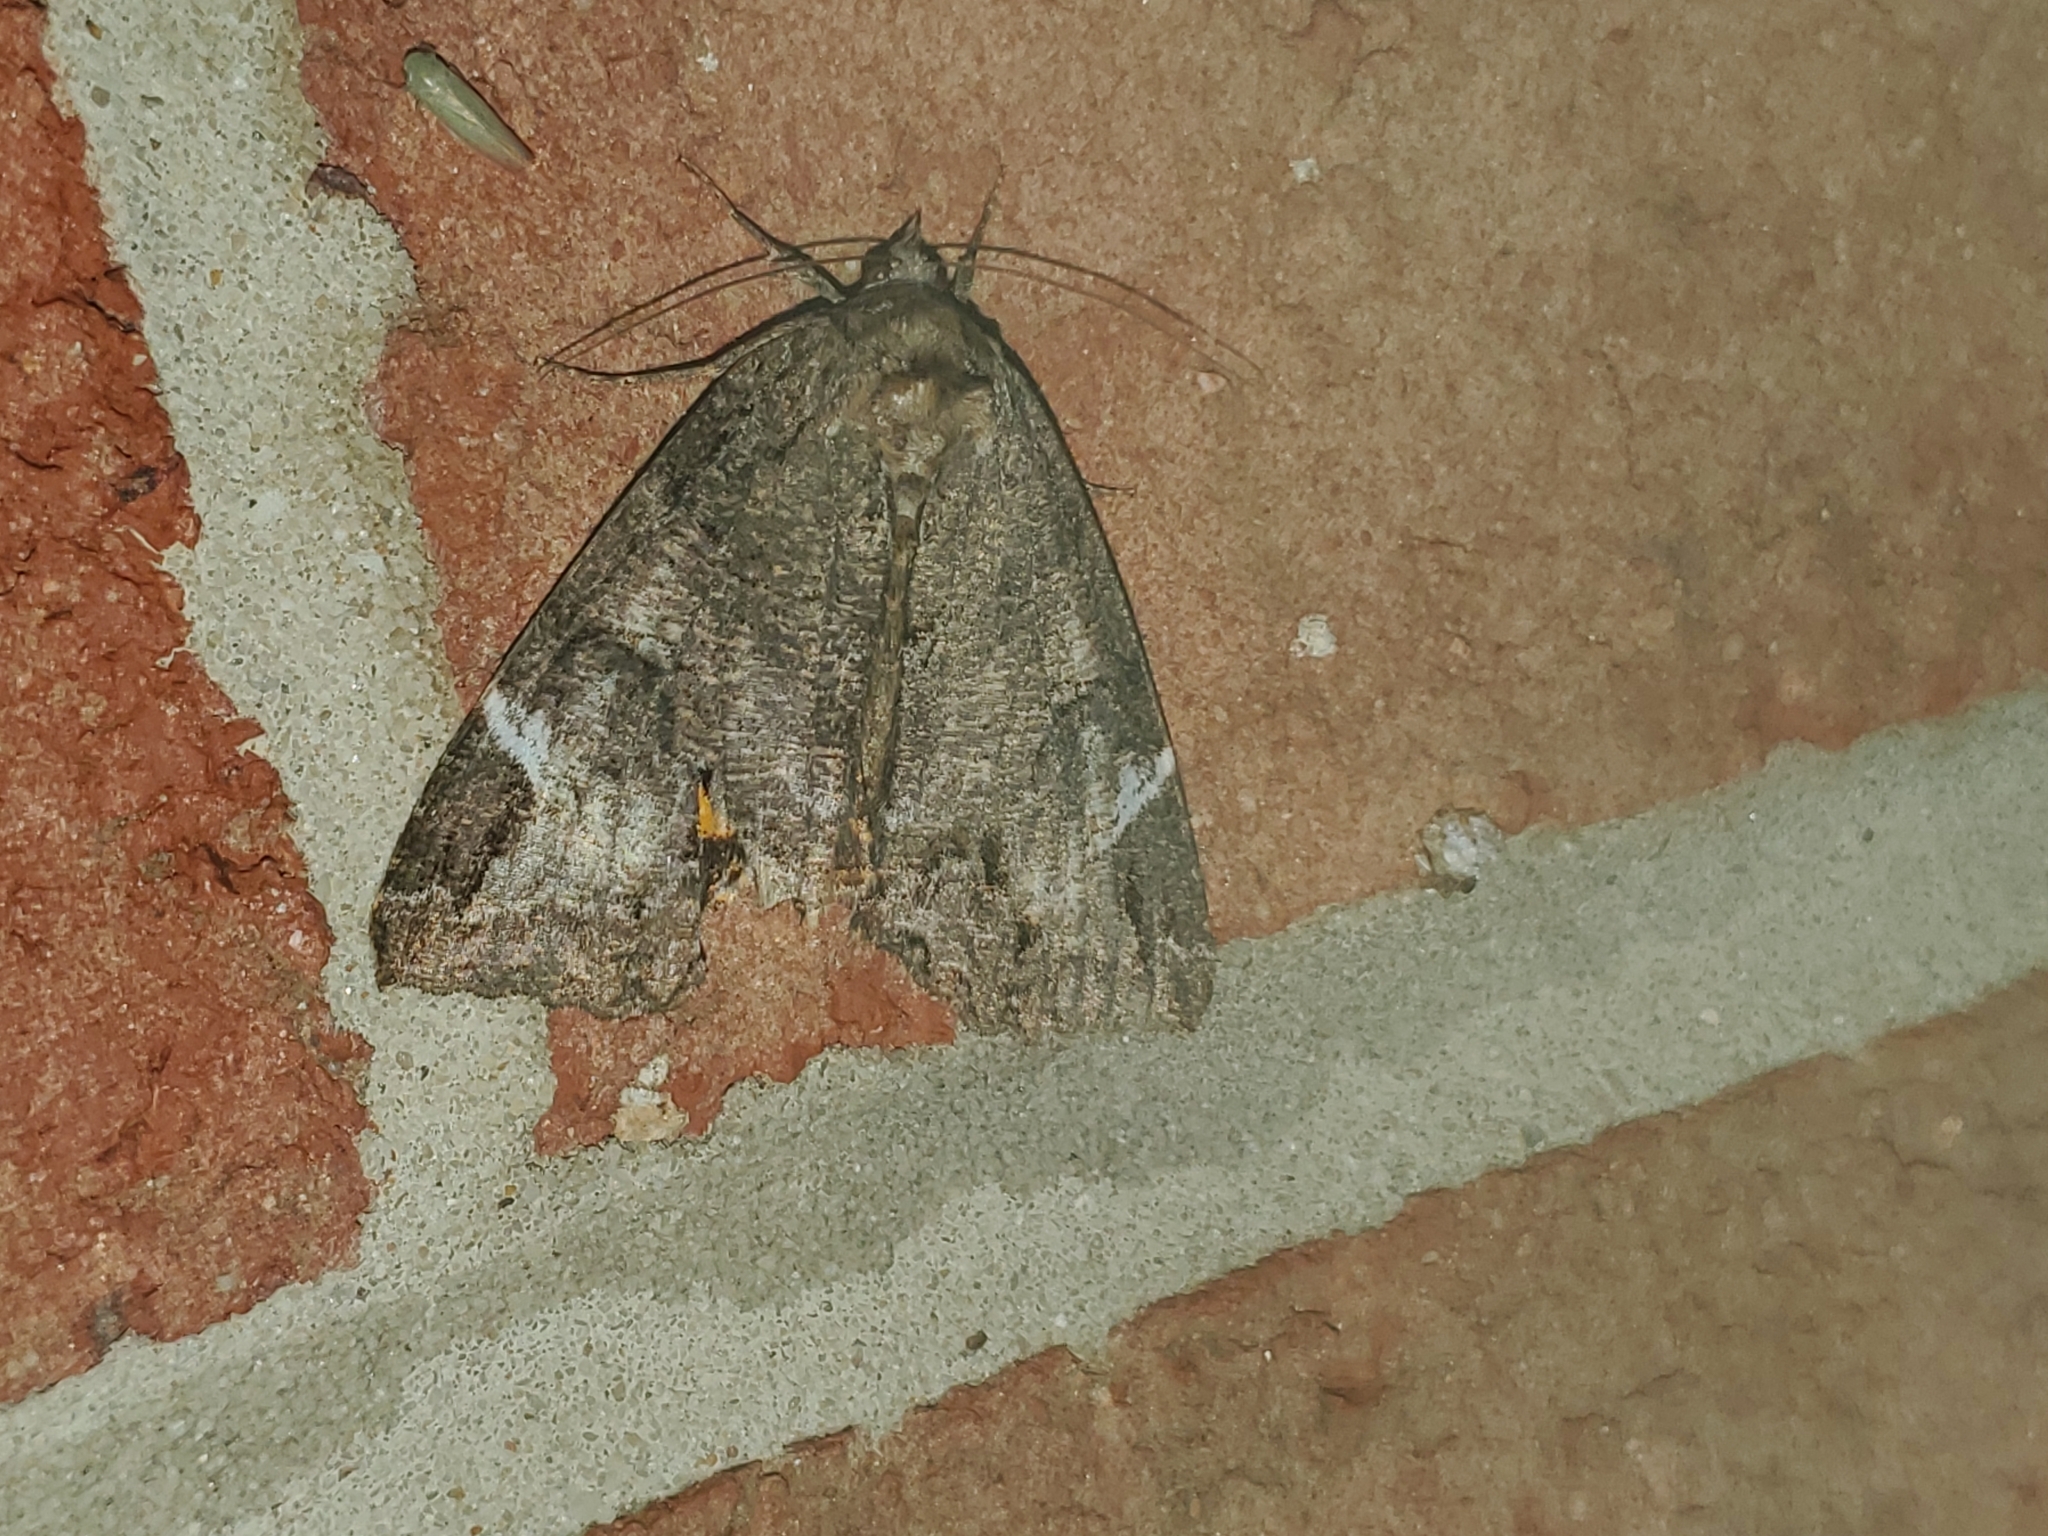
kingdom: Animalia
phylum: Arthropoda
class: Insecta
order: Lepidoptera
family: Erebidae
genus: Euparthenos
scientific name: Euparthenos nubilis
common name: Locust underwing
